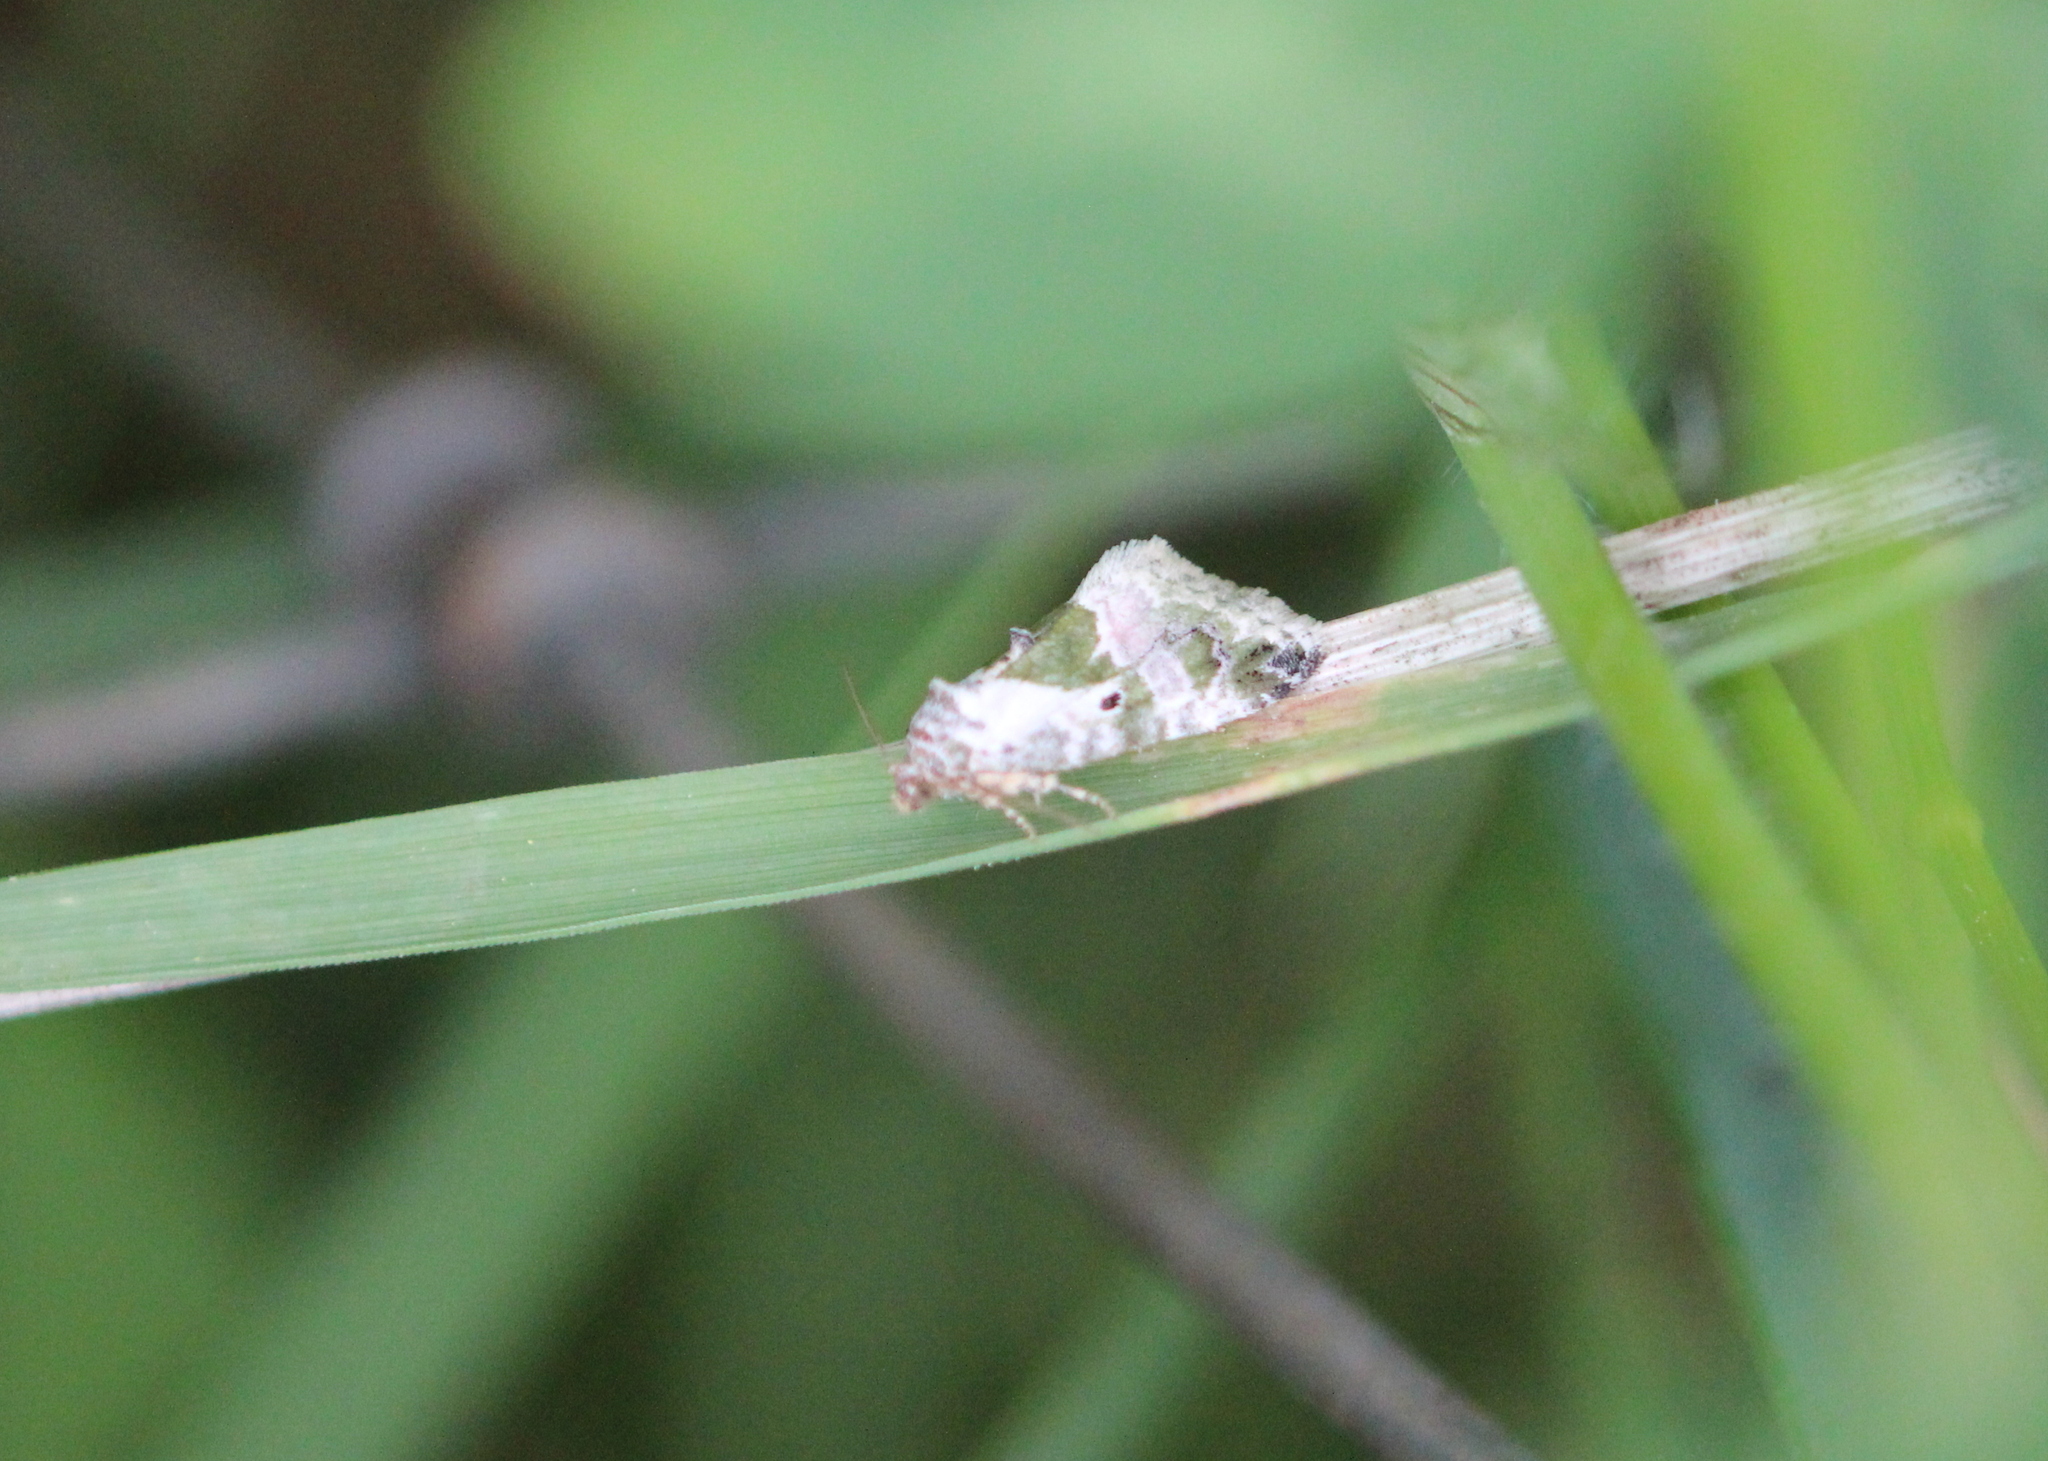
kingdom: Animalia
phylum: Arthropoda
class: Insecta
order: Lepidoptera
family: Noctuidae
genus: Maliattha
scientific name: Maliattha synochitis
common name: Black-dotted glyph
